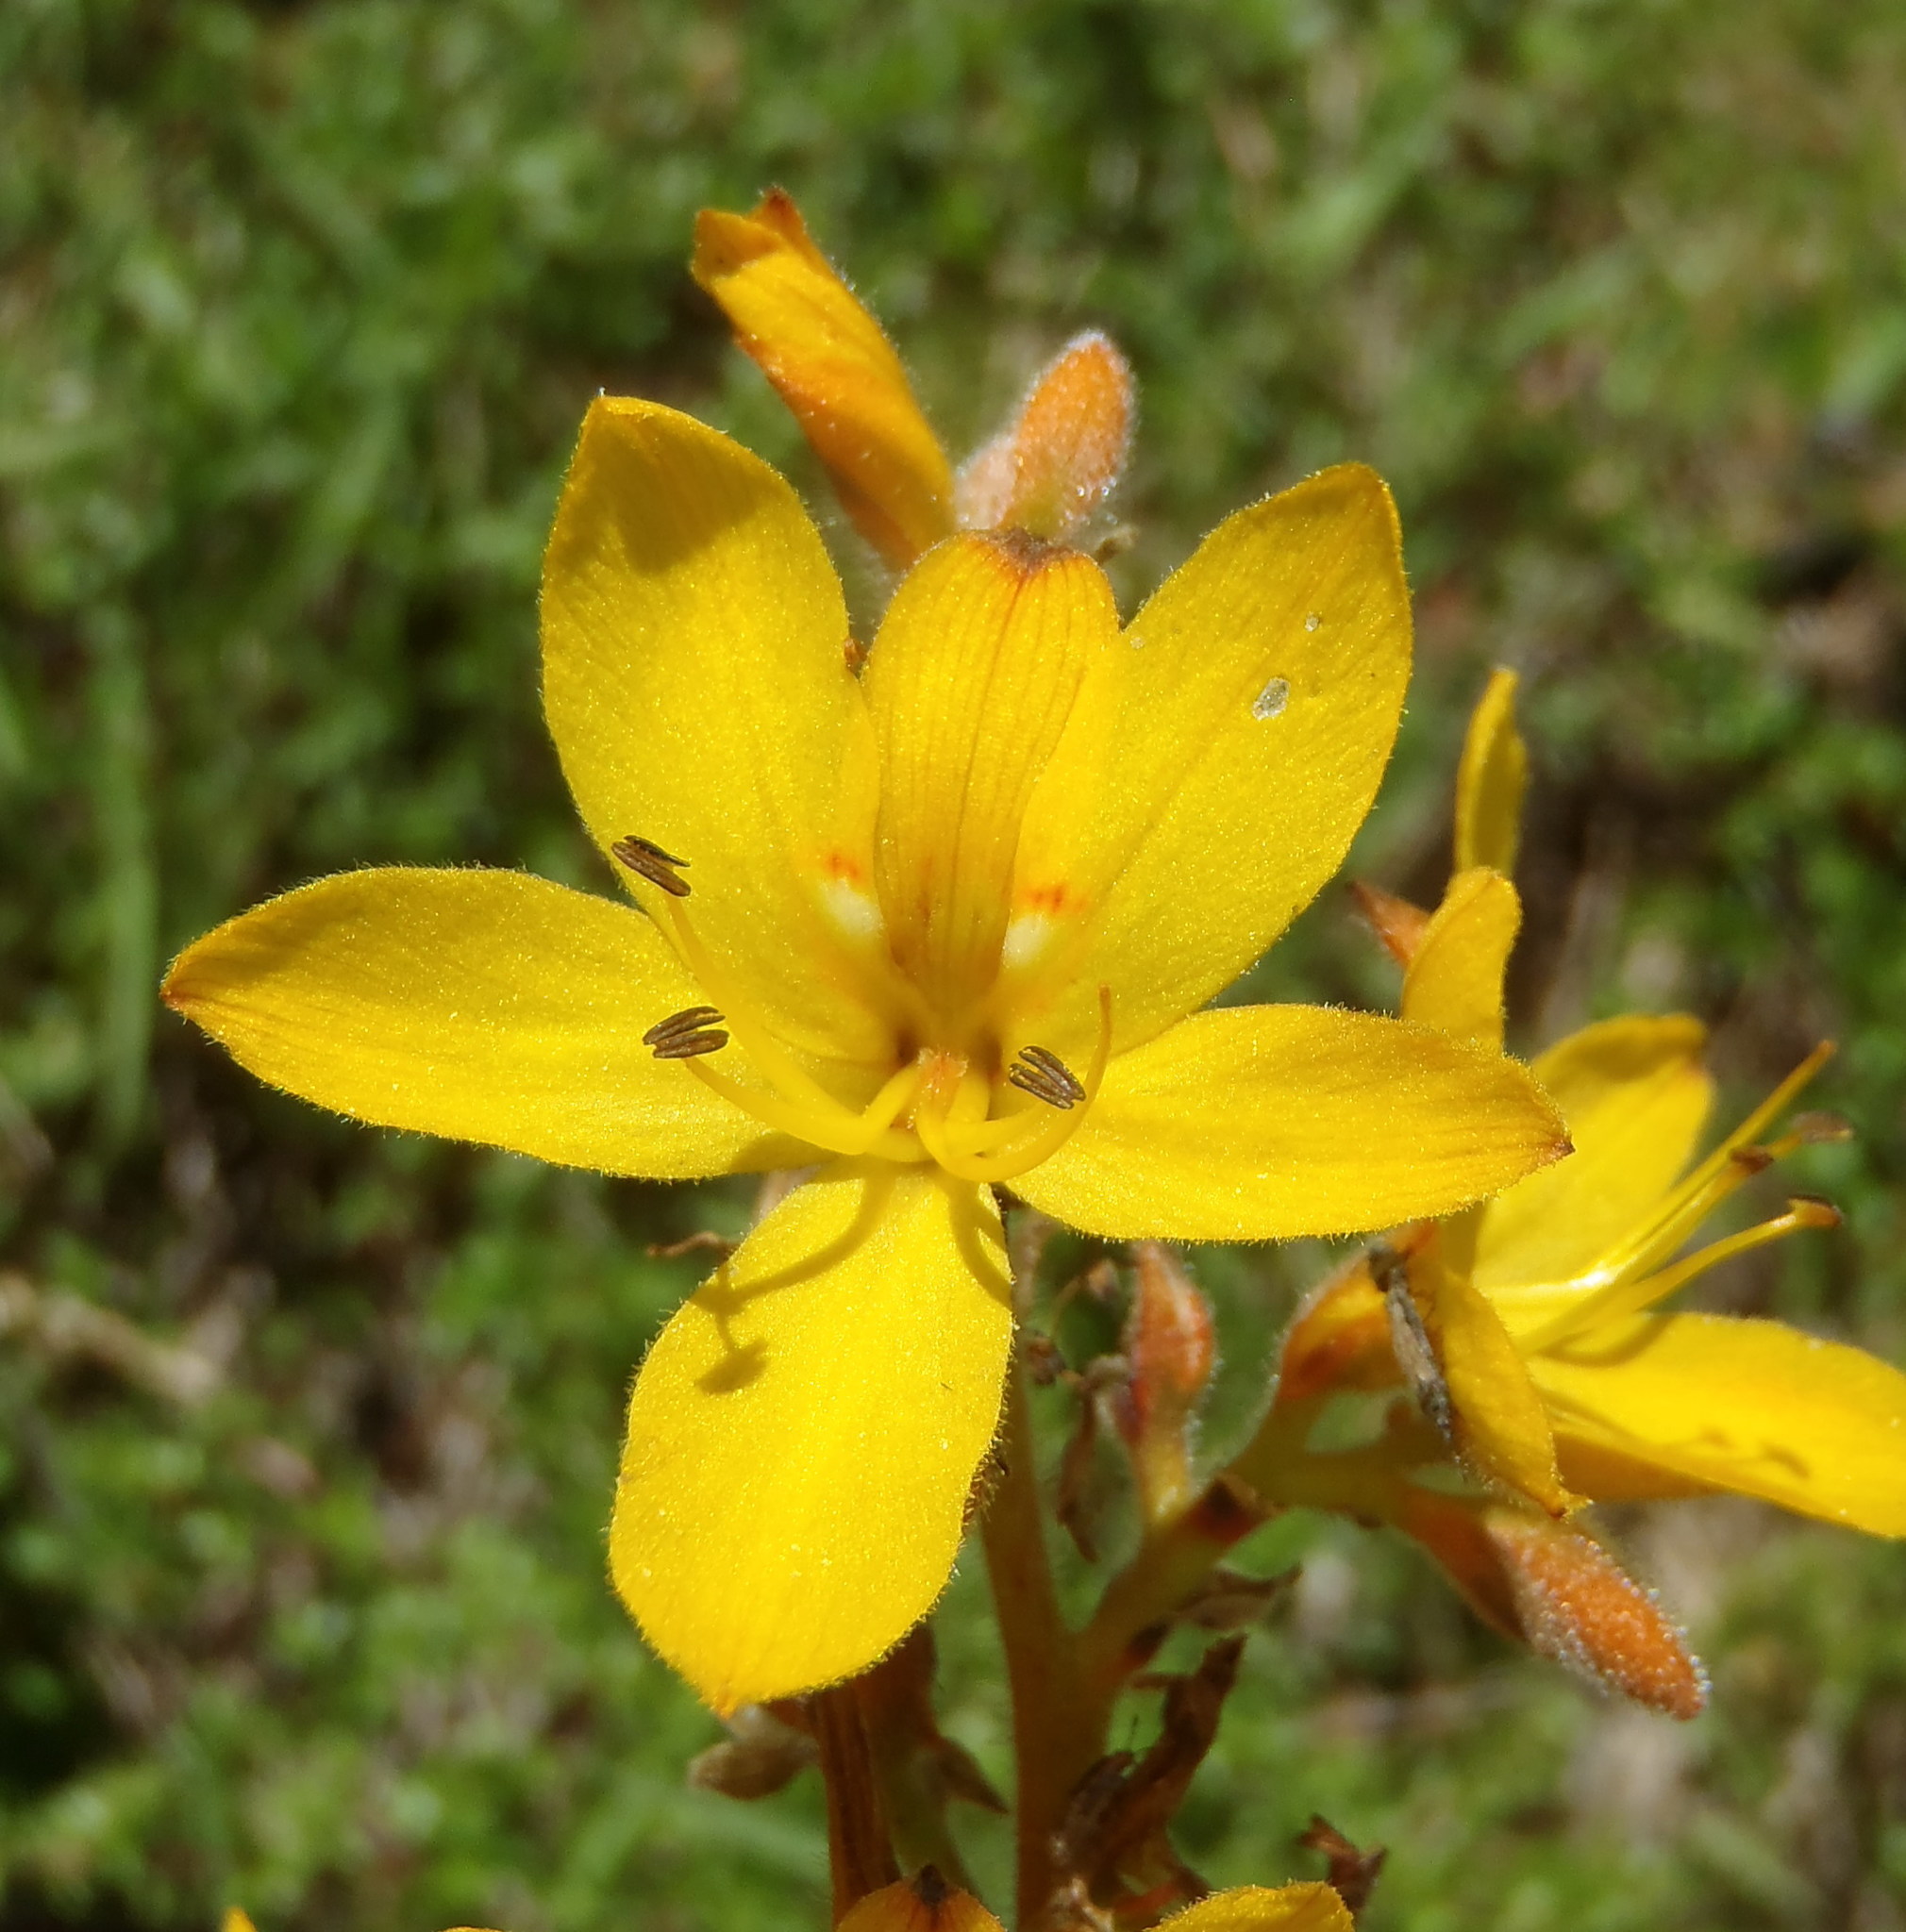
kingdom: Plantae
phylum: Tracheophyta
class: Liliopsida
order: Commelinales
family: Haemodoraceae
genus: Wachendorfia
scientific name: Wachendorfia thyrsiflora
